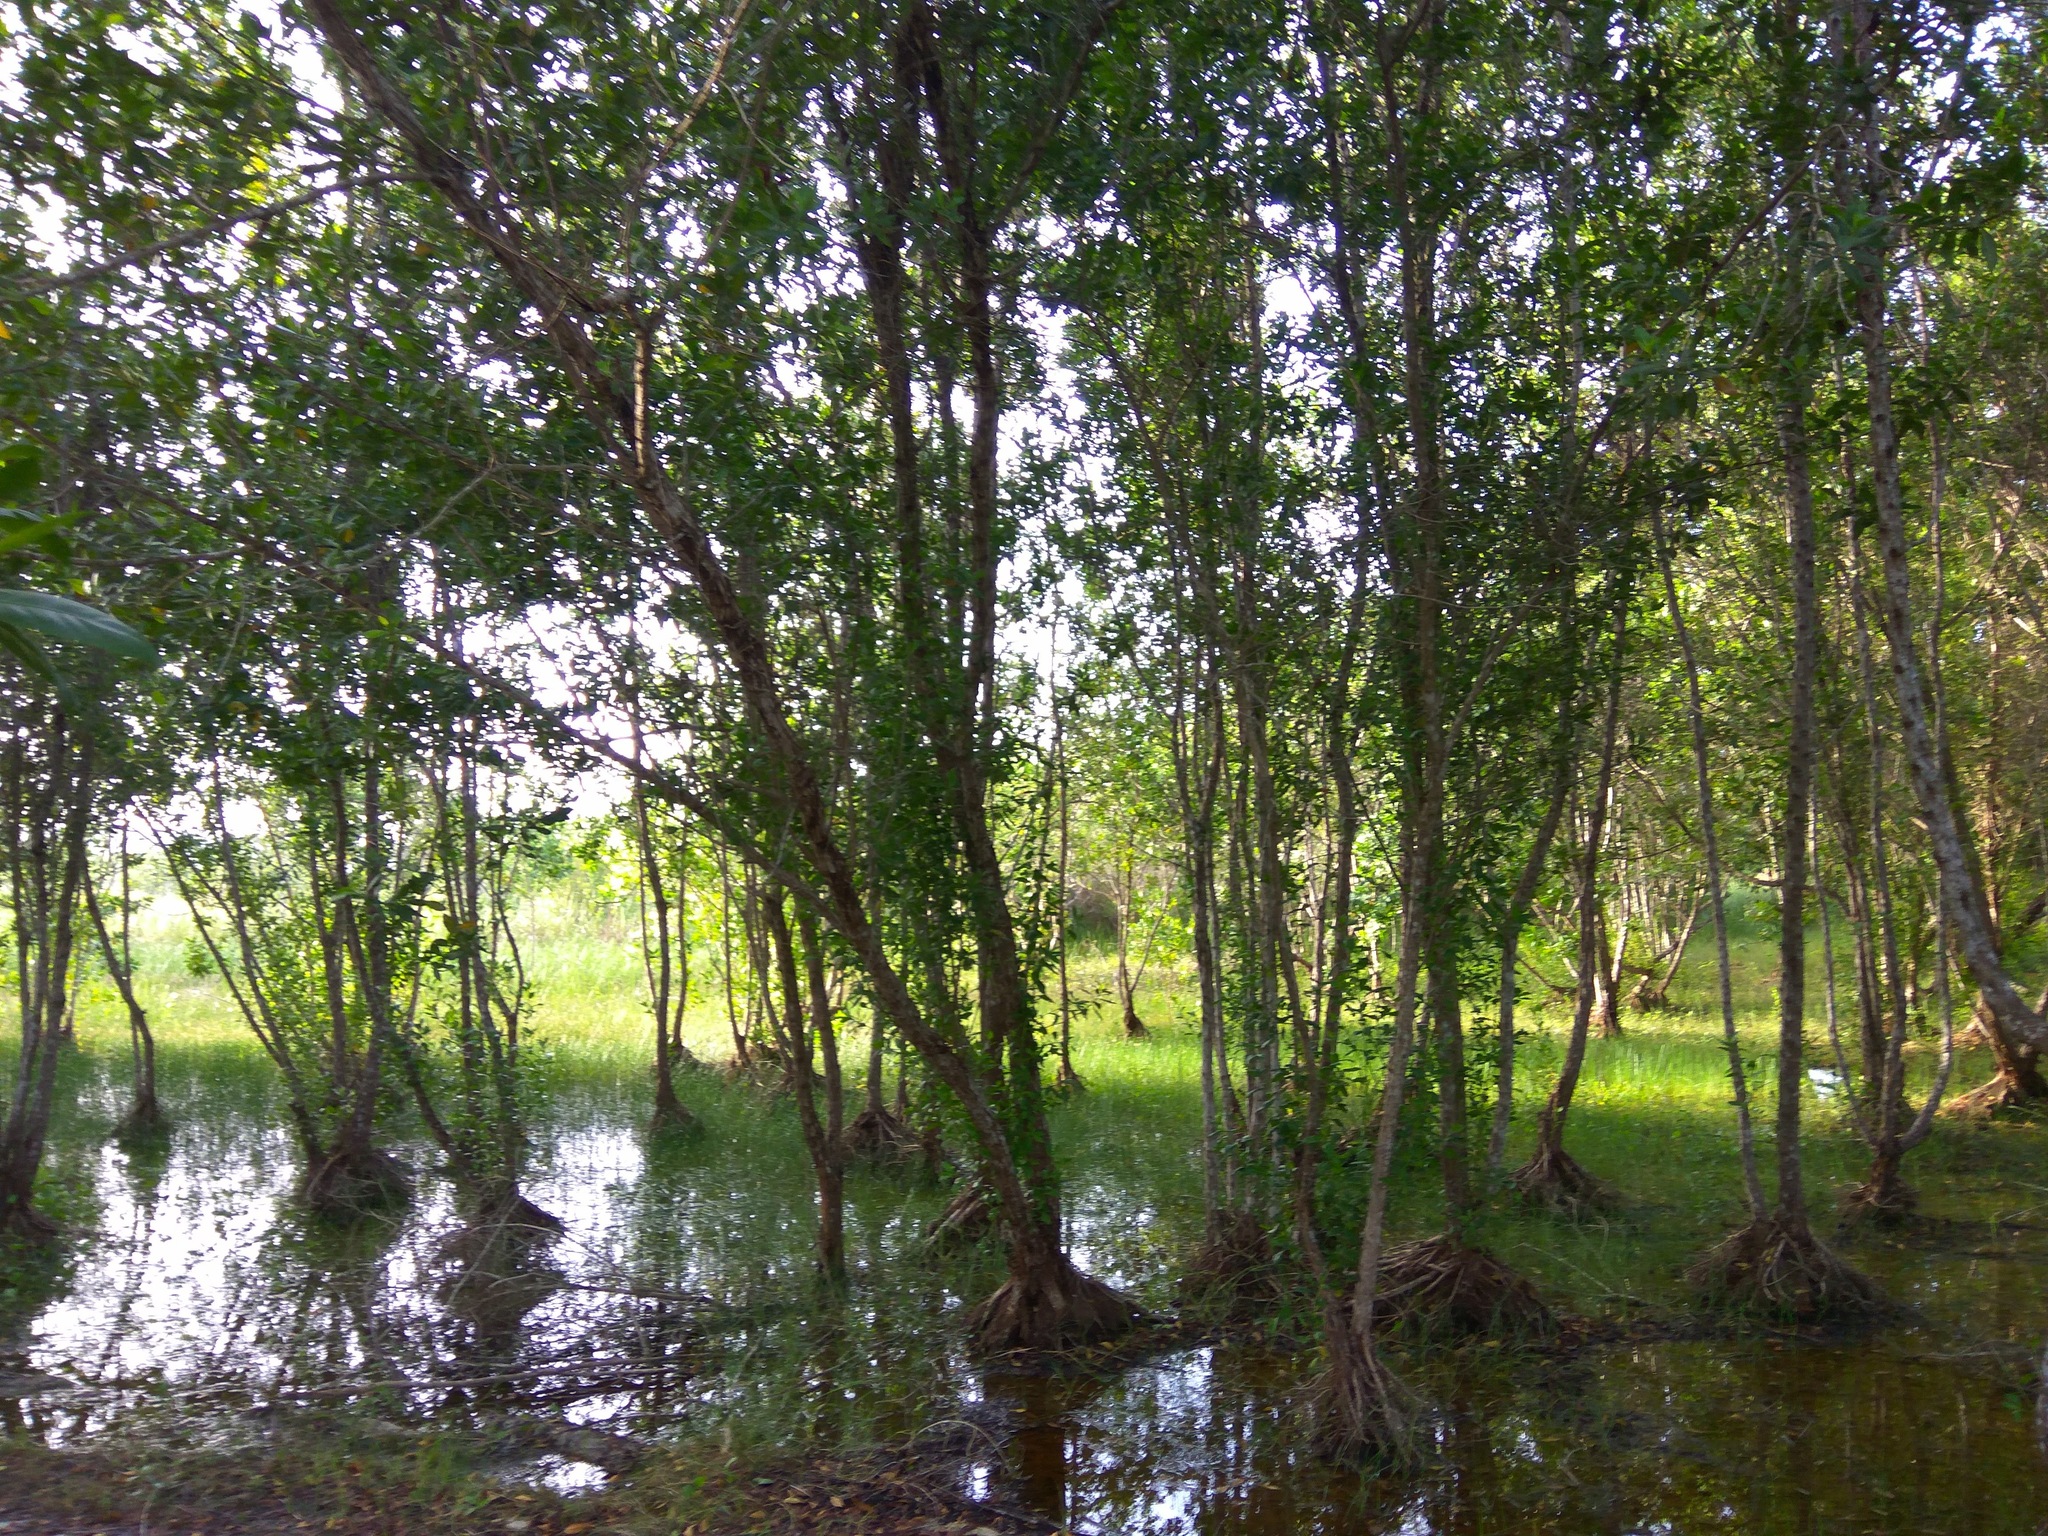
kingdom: Plantae
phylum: Tracheophyta
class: Magnoliopsida
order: Myrtales
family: Combretaceae
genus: Conocarpus
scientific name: Conocarpus erectus
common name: Button mangrove
